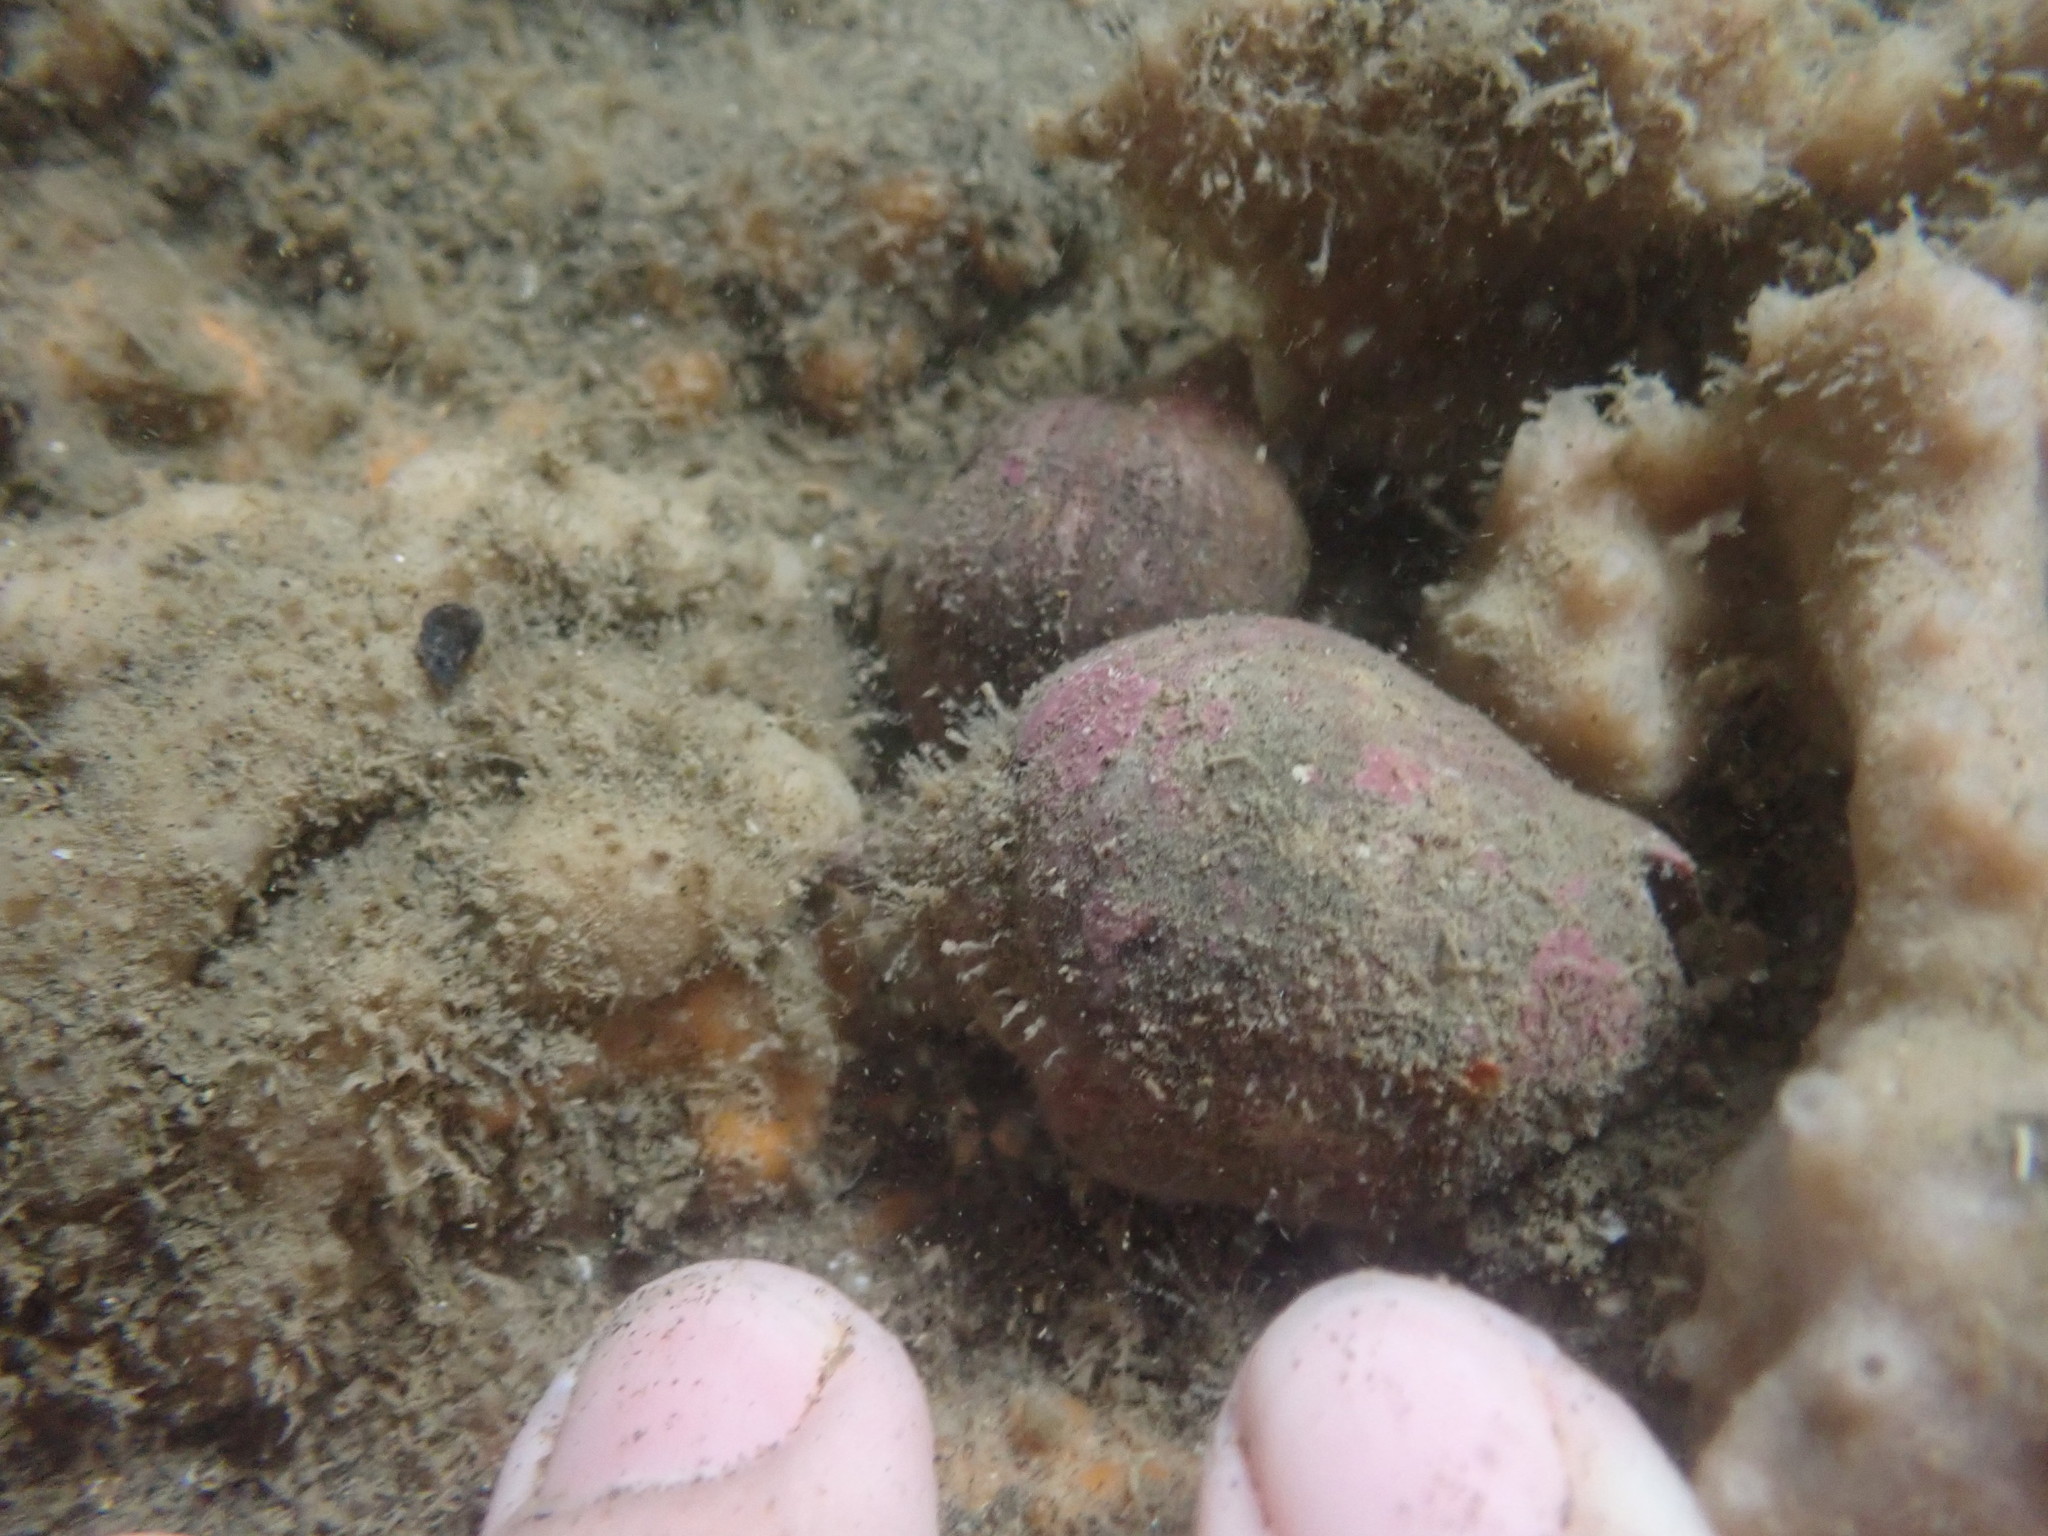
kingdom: Animalia
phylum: Mollusca
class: Gastropoda
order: Neogastropoda
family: Cominellidae
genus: Cominella
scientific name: Cominella adspersa
